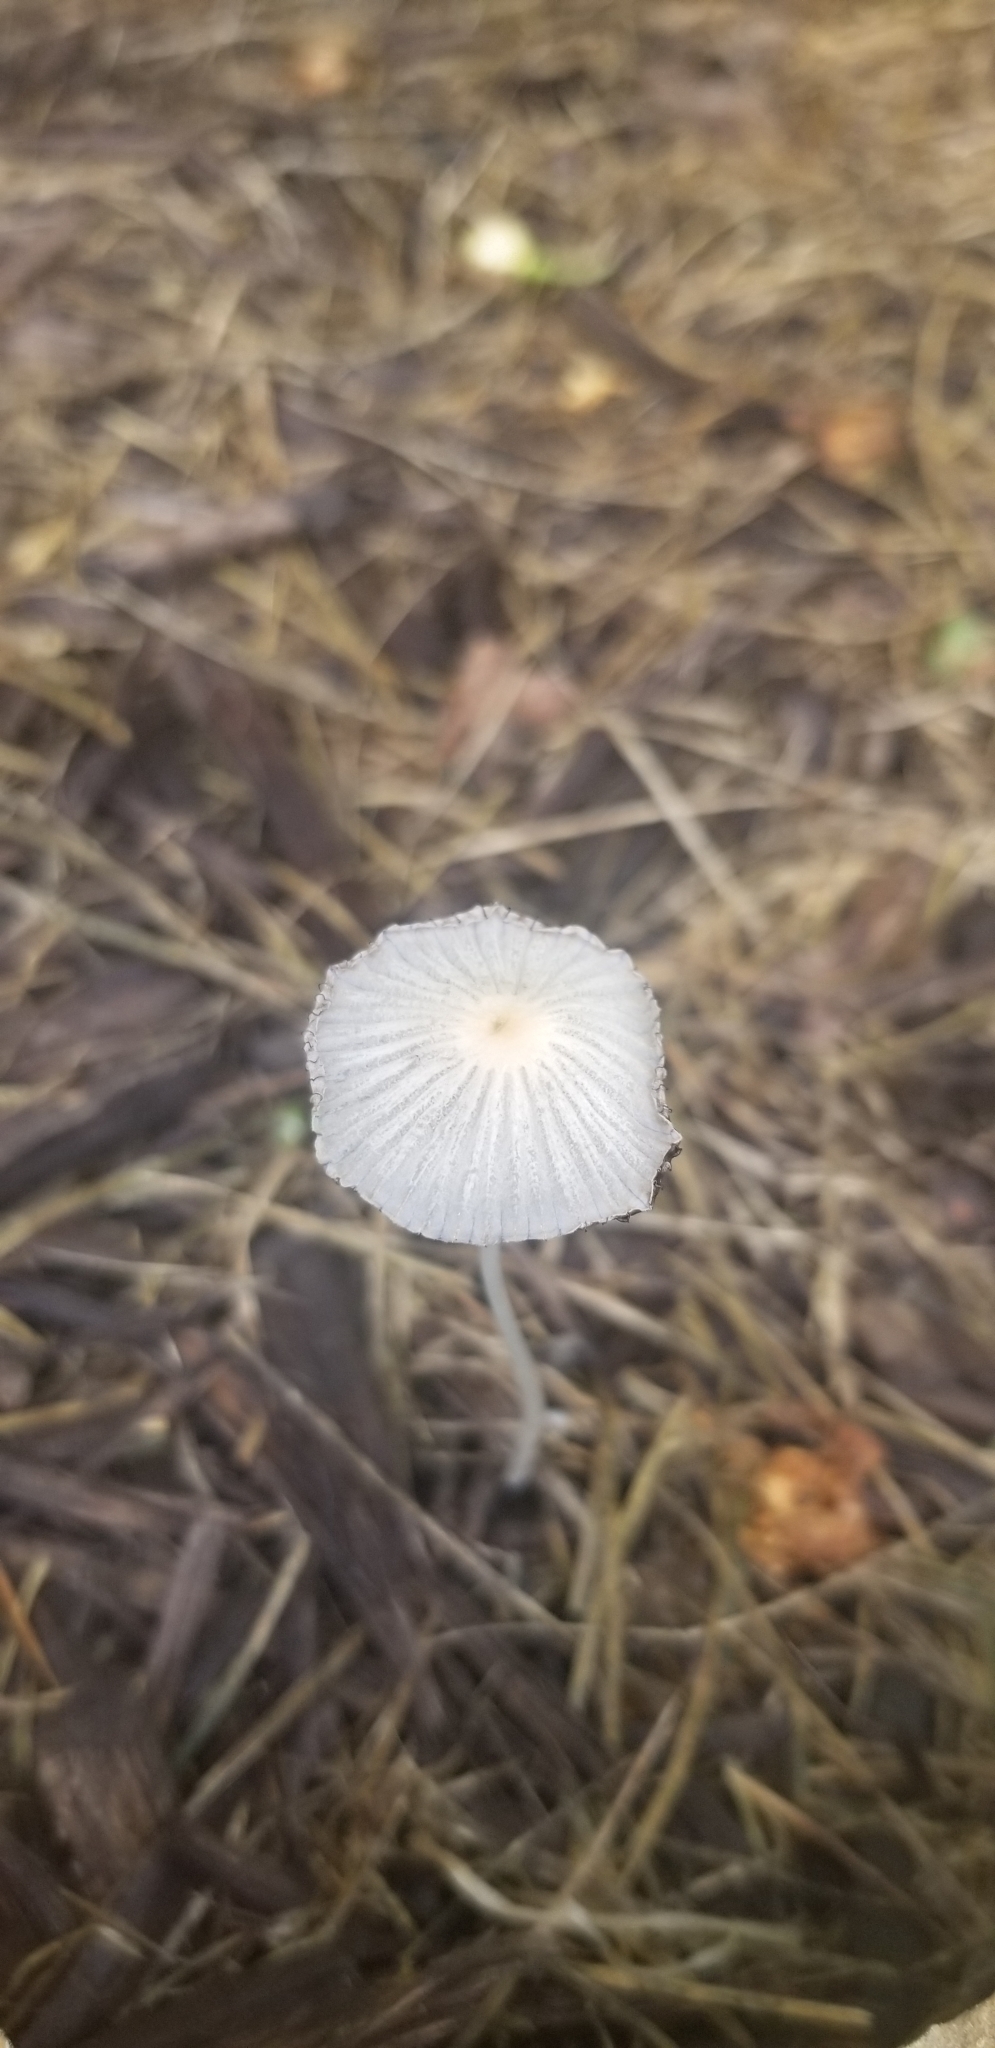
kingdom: Fungi
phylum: Basidiomycota
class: Agaricomycetes
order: Agaricales
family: Psathyrellaceae
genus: Parasola
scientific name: Parasola plicatilis
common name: Pleated inkcap
